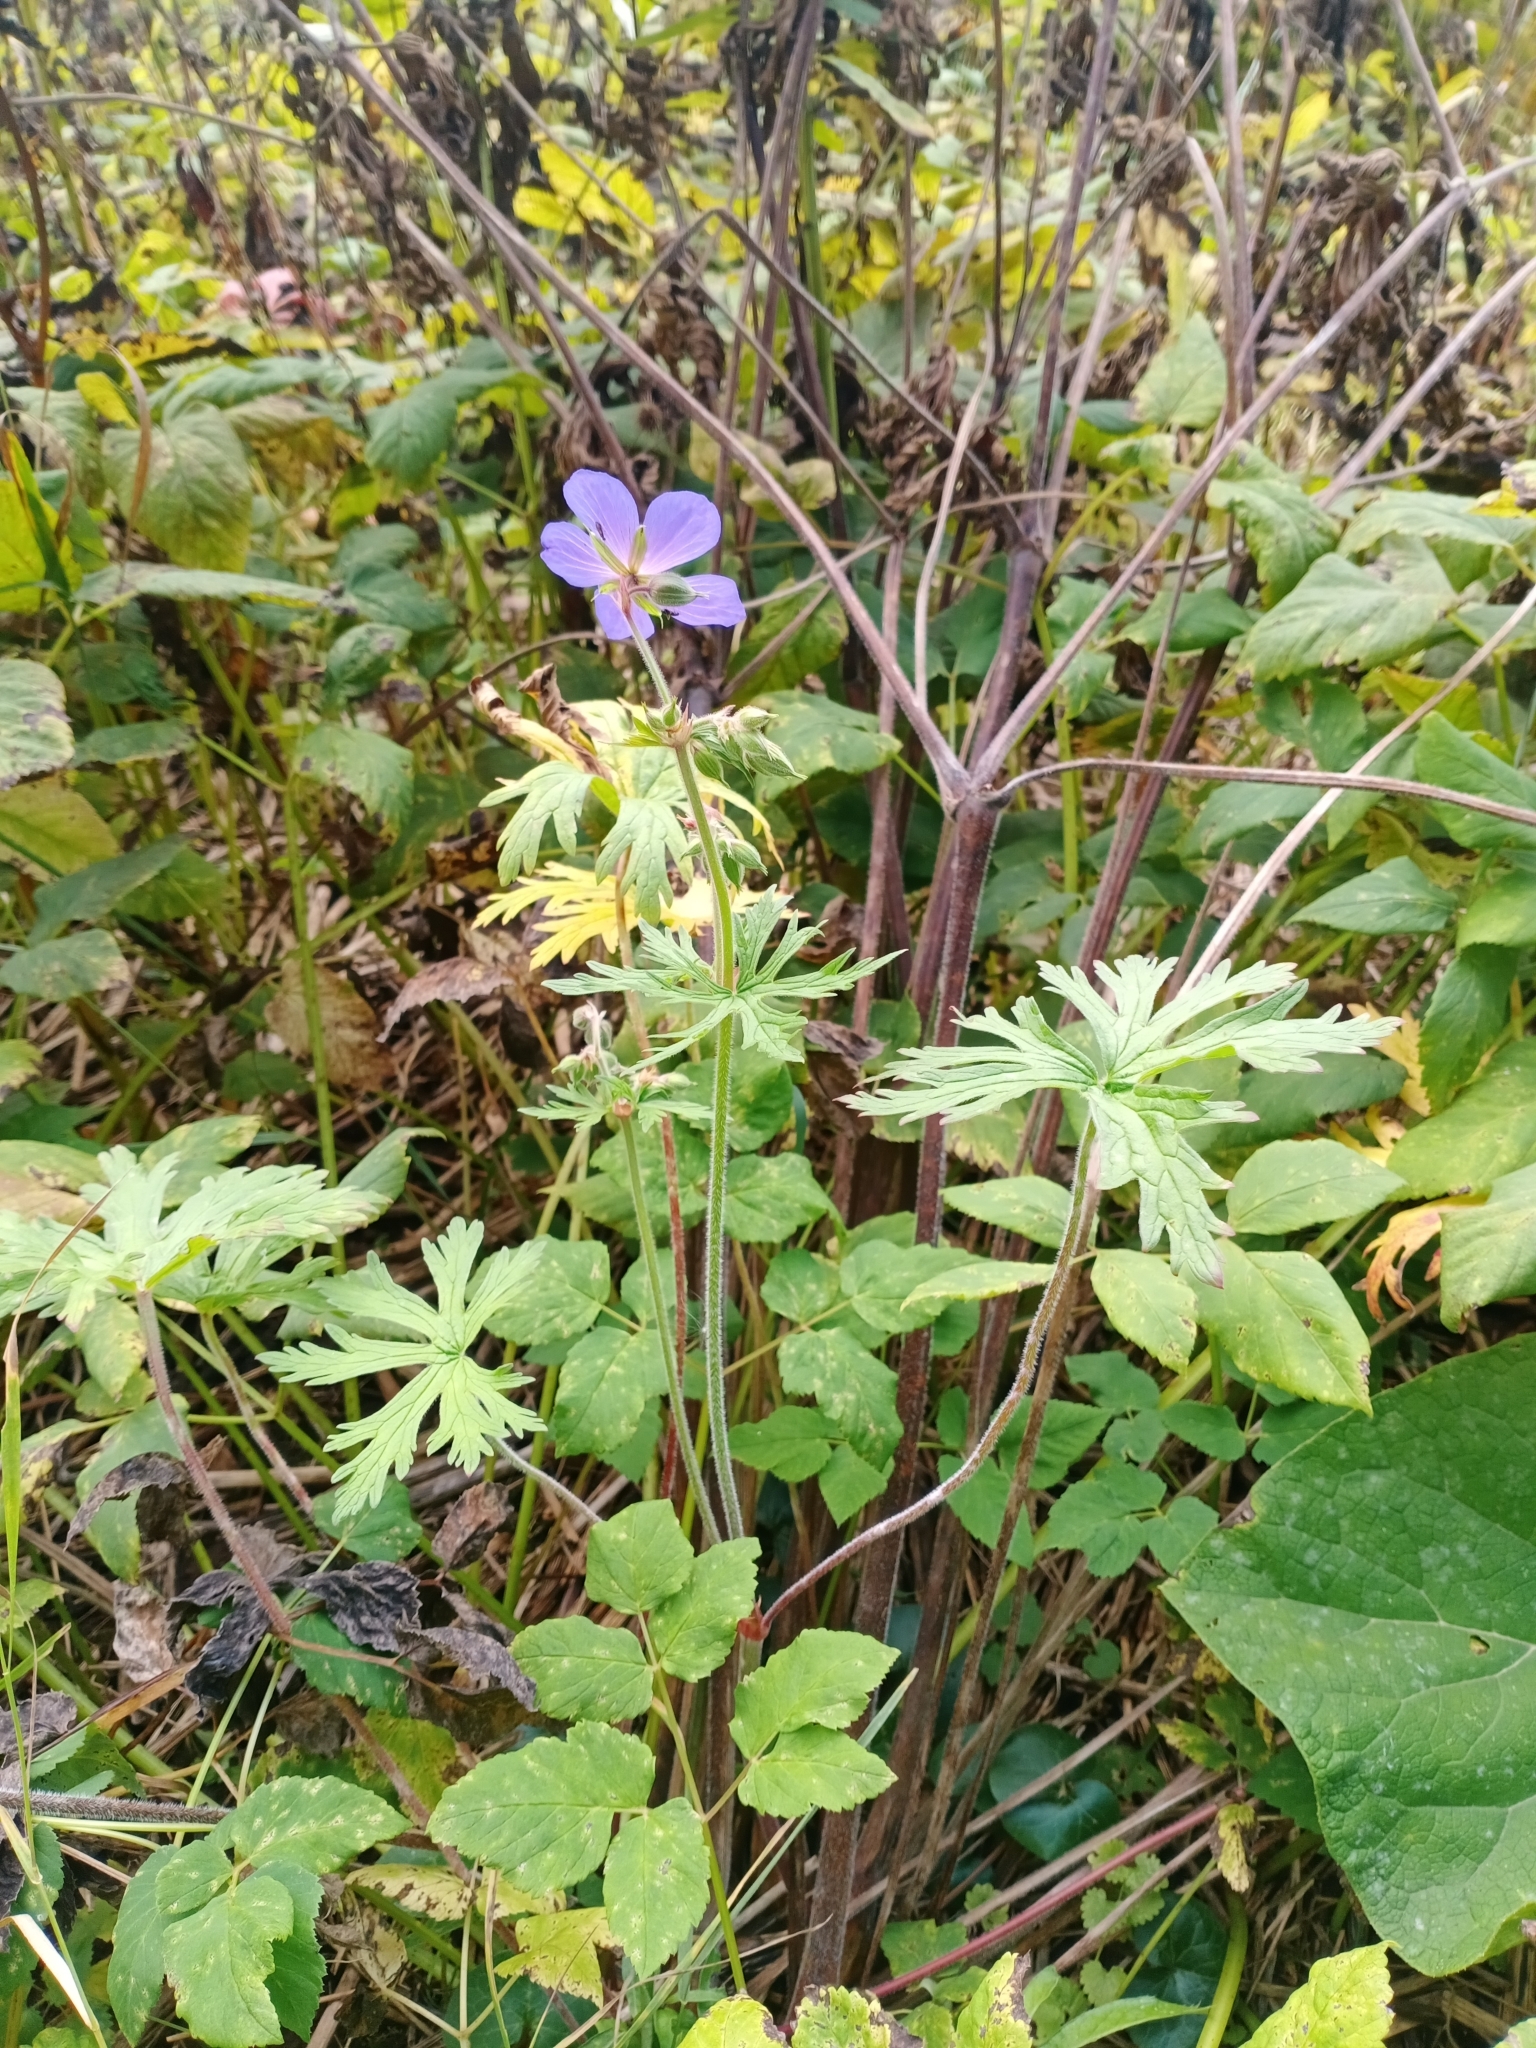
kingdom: Plantae
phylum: Tracheophyta
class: Magnoliopsida
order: Geraniales
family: Geraniaceae
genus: Geranium
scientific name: Geranium pratense
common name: Meadow crane's-bill
